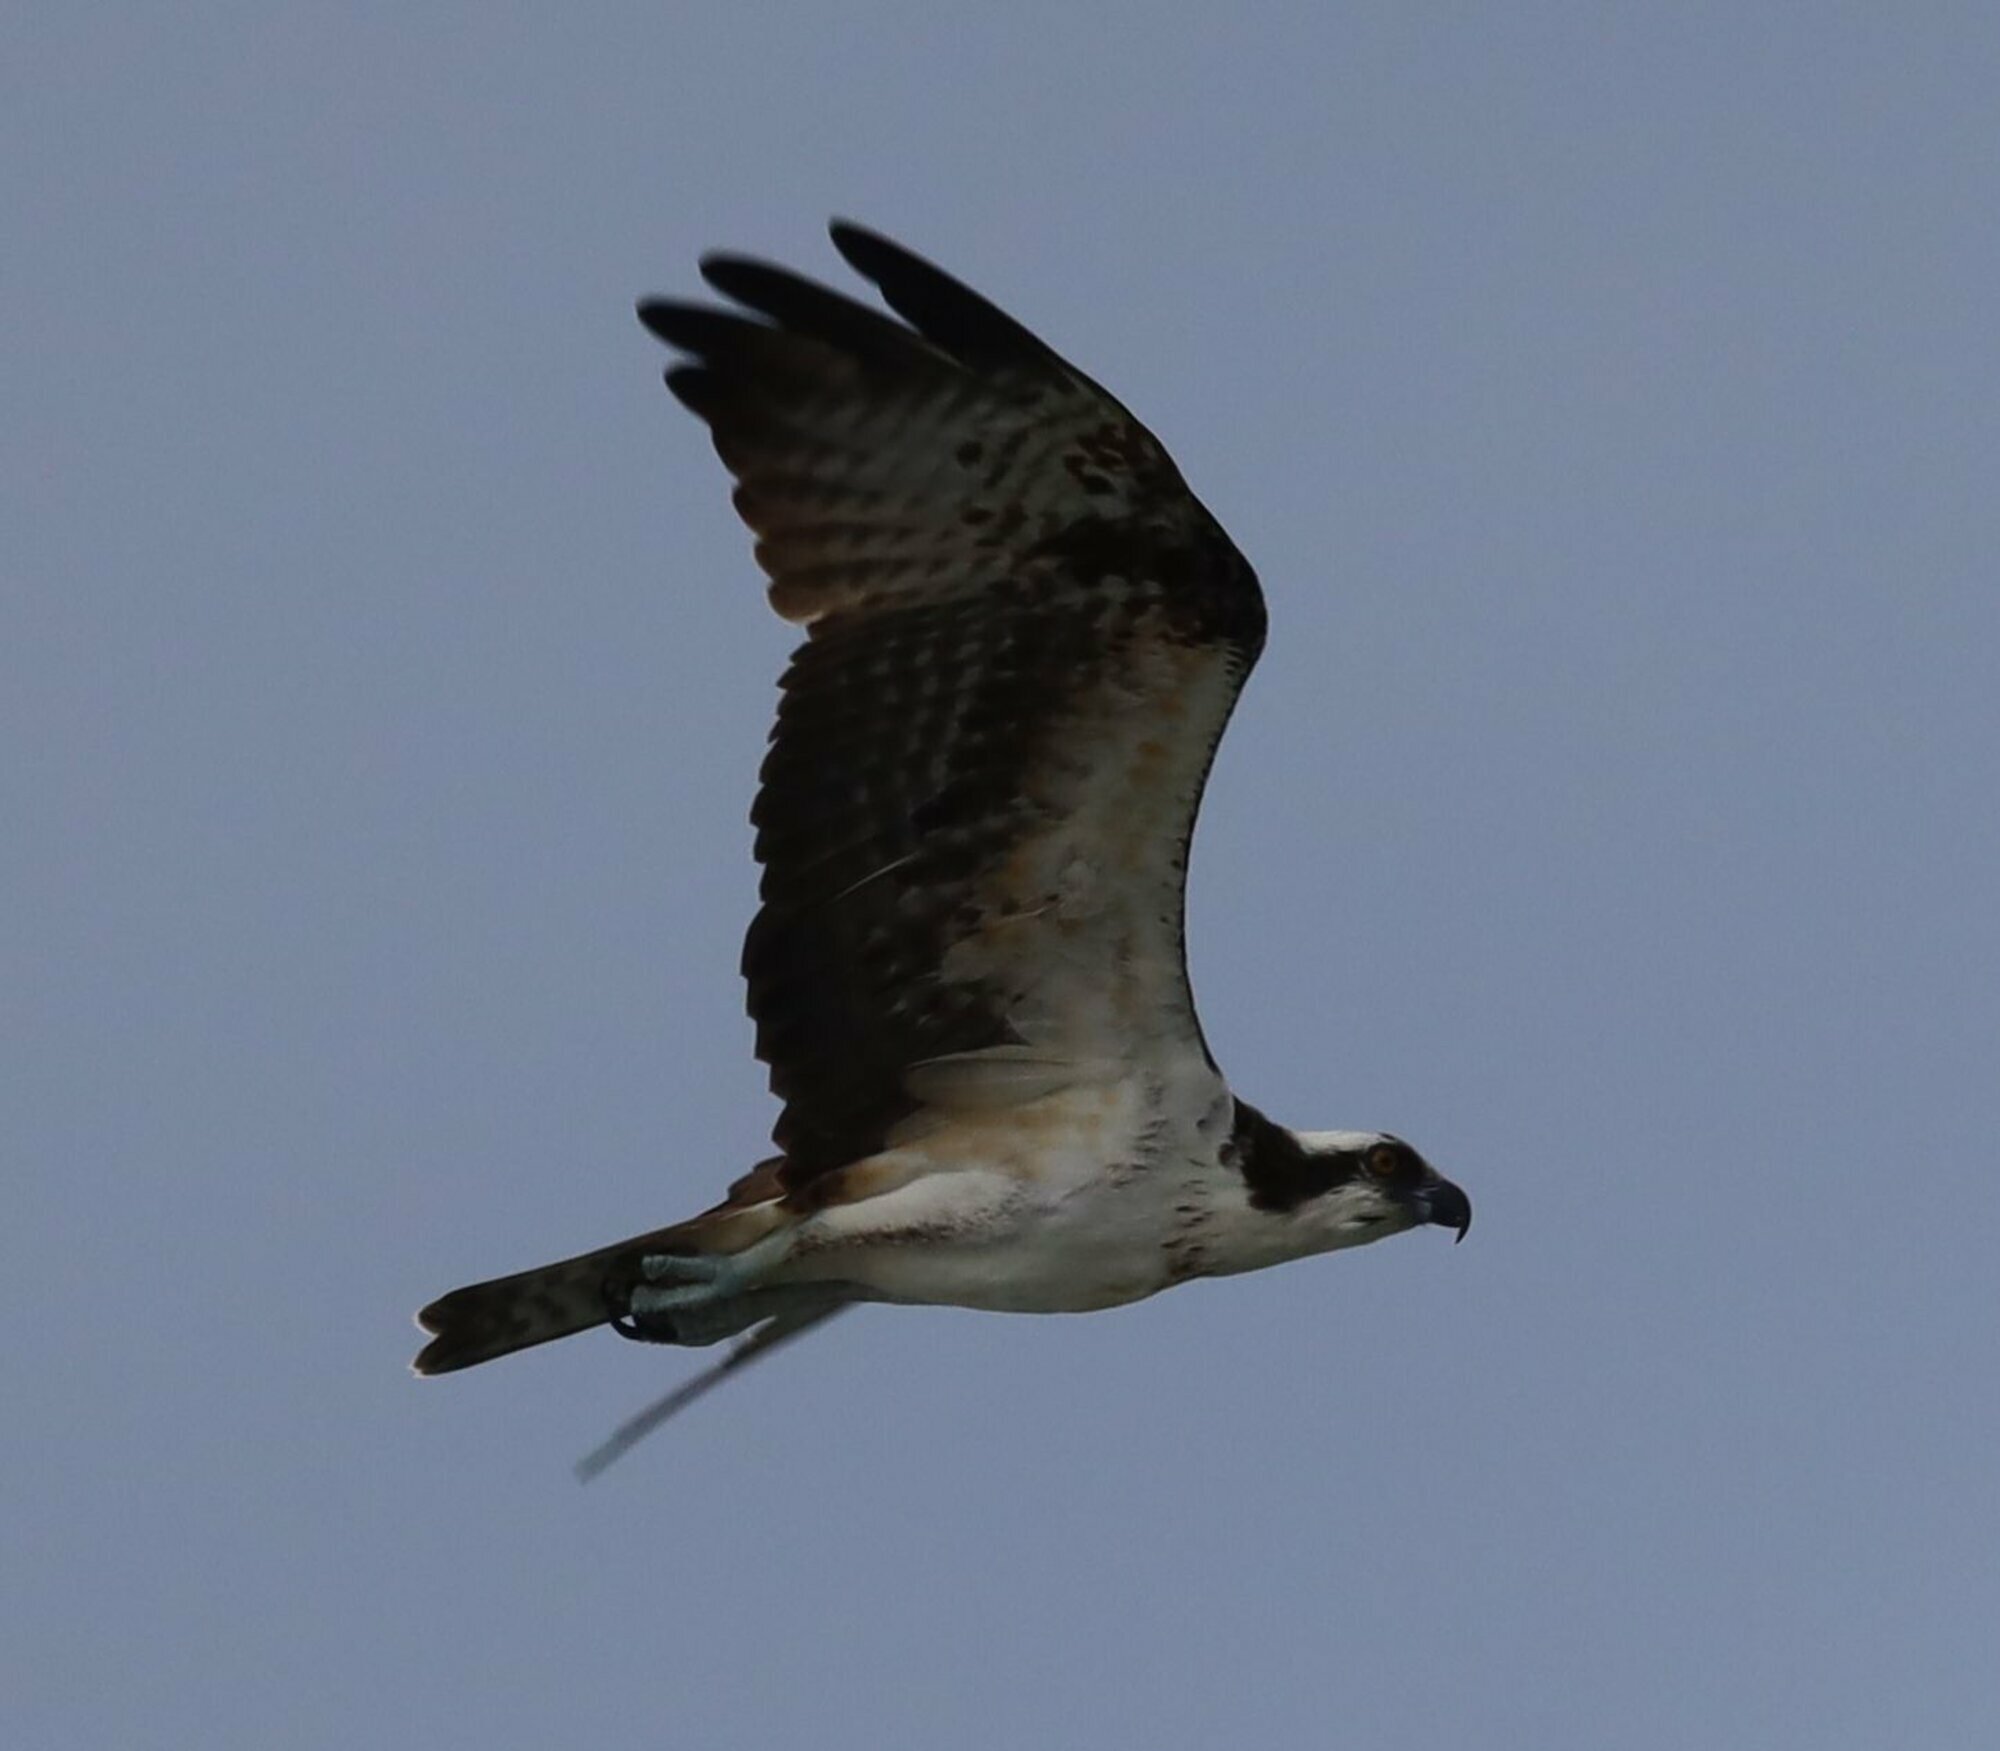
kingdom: Animalia
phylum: Chordata
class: Aves
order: Accipitriformes
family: Pandionidae
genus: Pandion
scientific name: Pandion haliaetus
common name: Osprey
